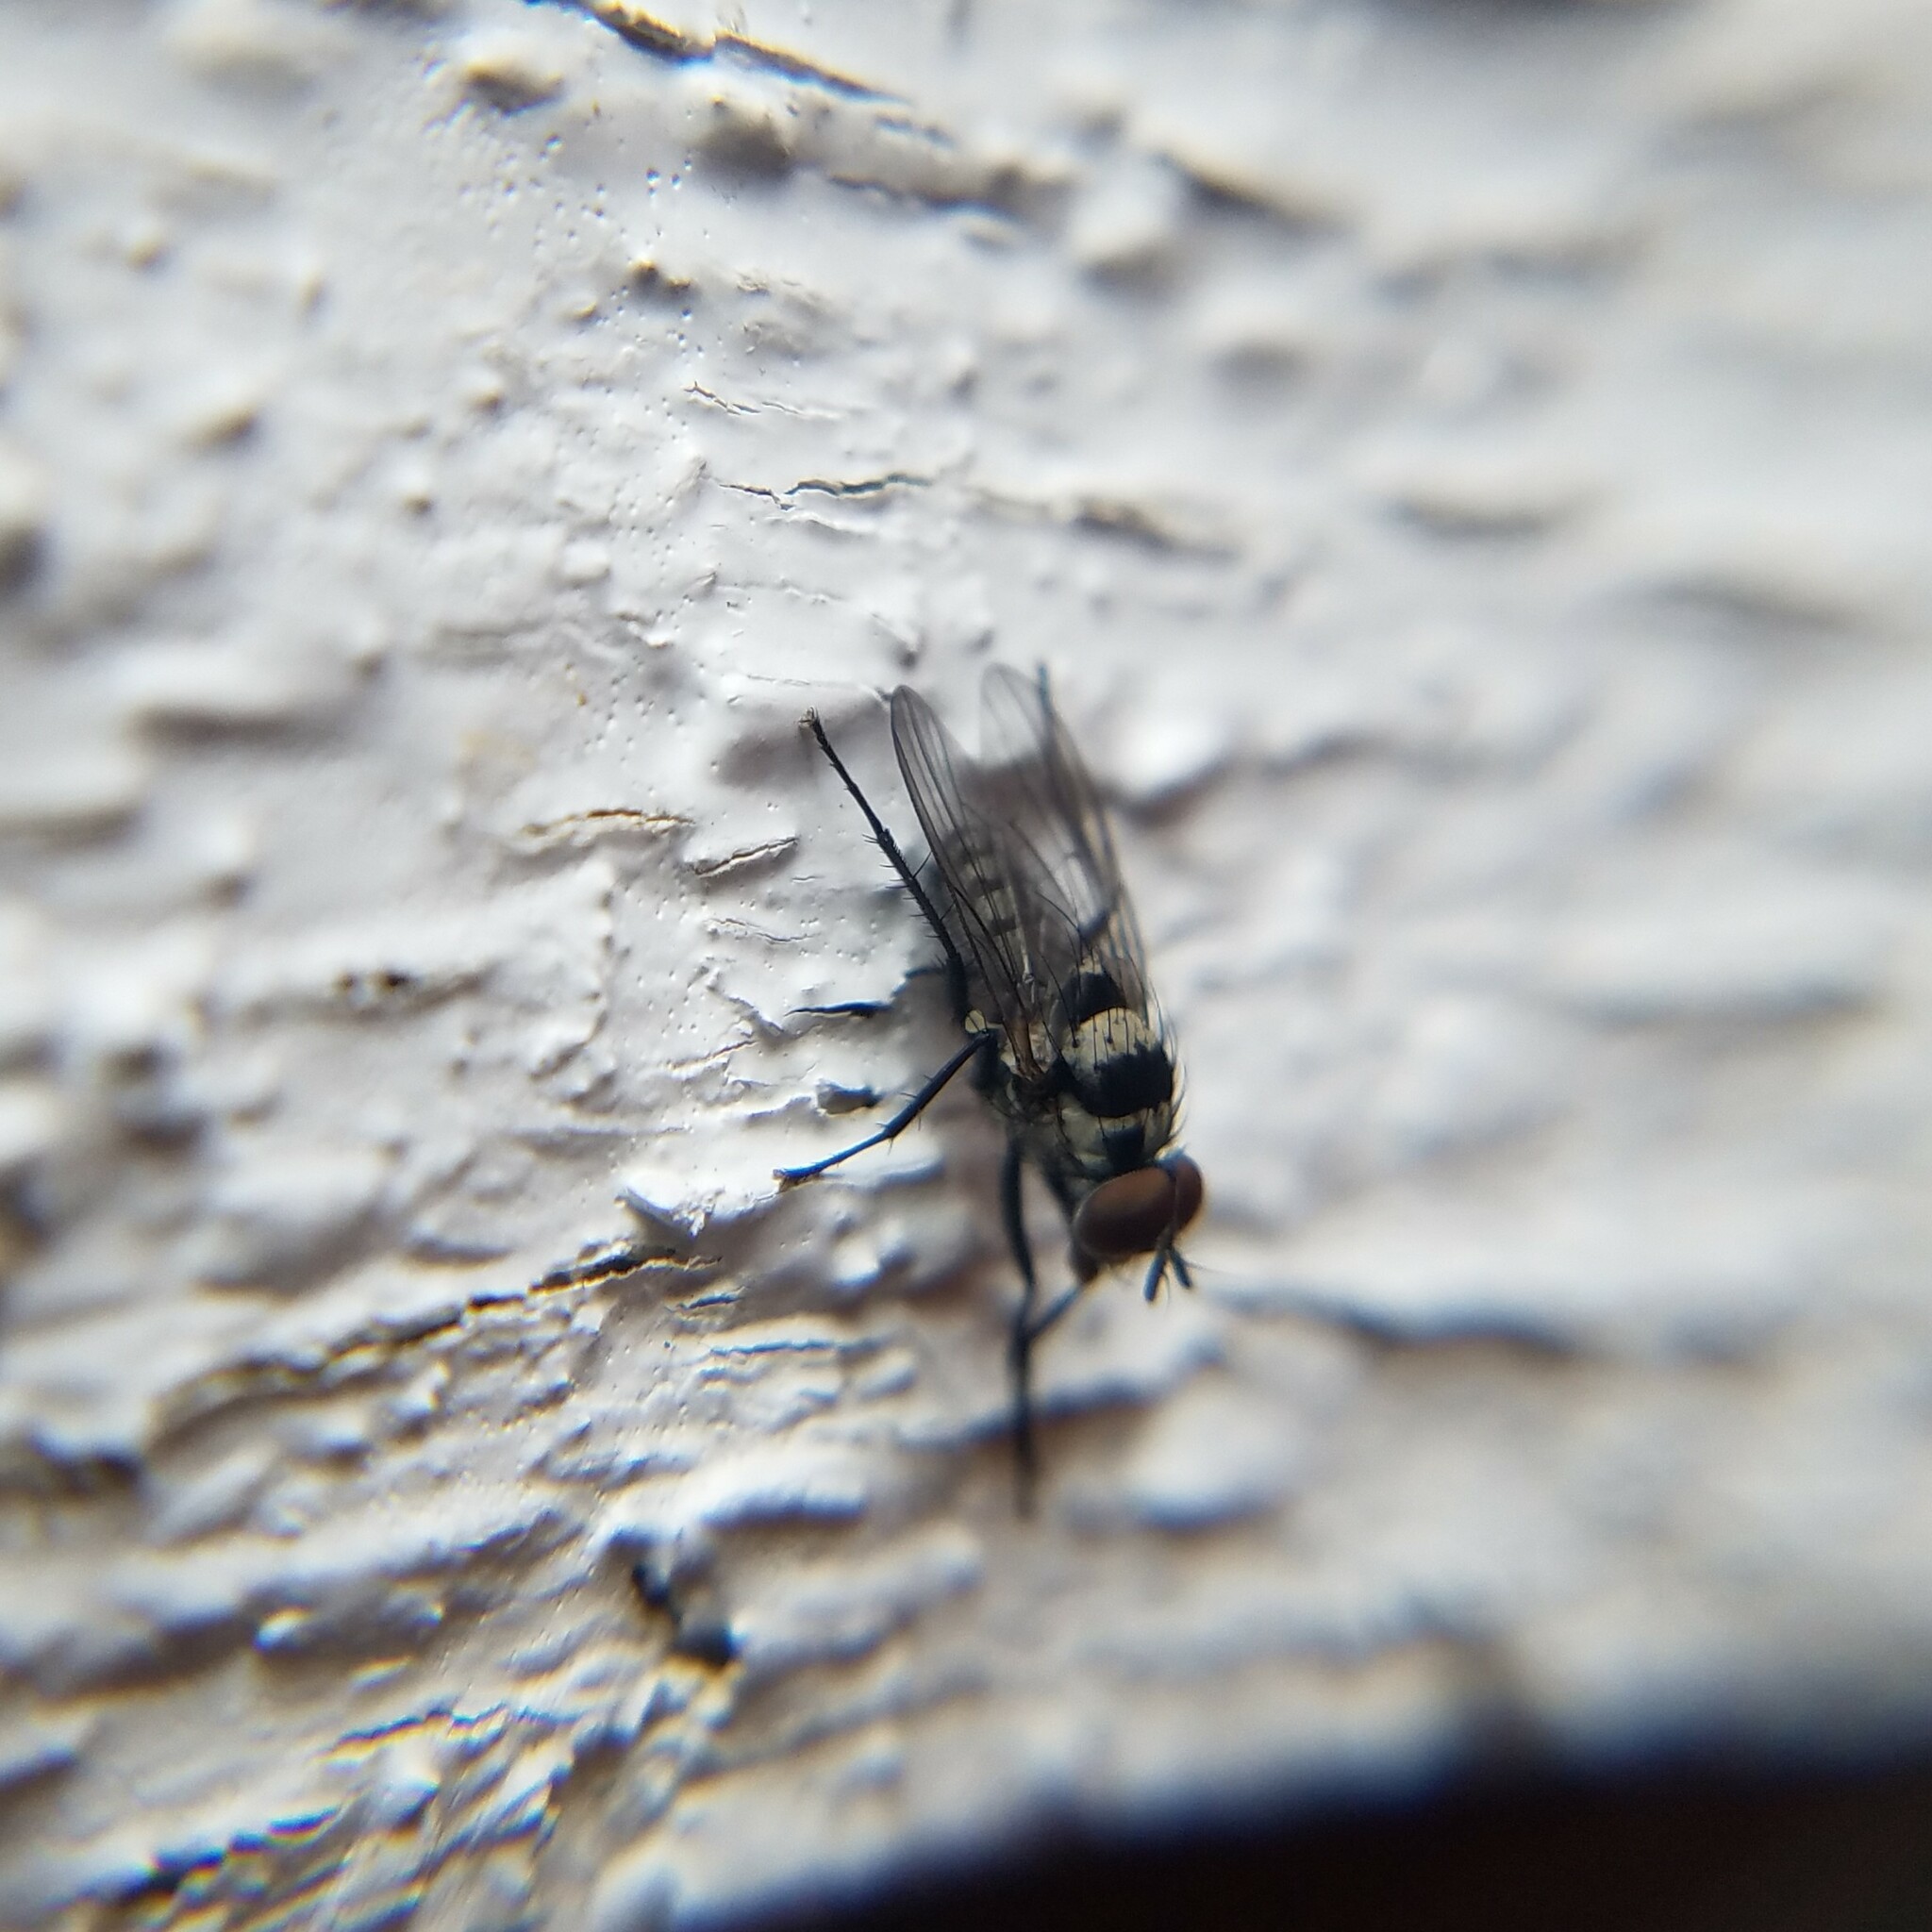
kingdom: Animalia
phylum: Arthropoda
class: Insecta
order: Diptera
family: Anthomyiidae
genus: Anthomyia
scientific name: Anthomyia oculifera
